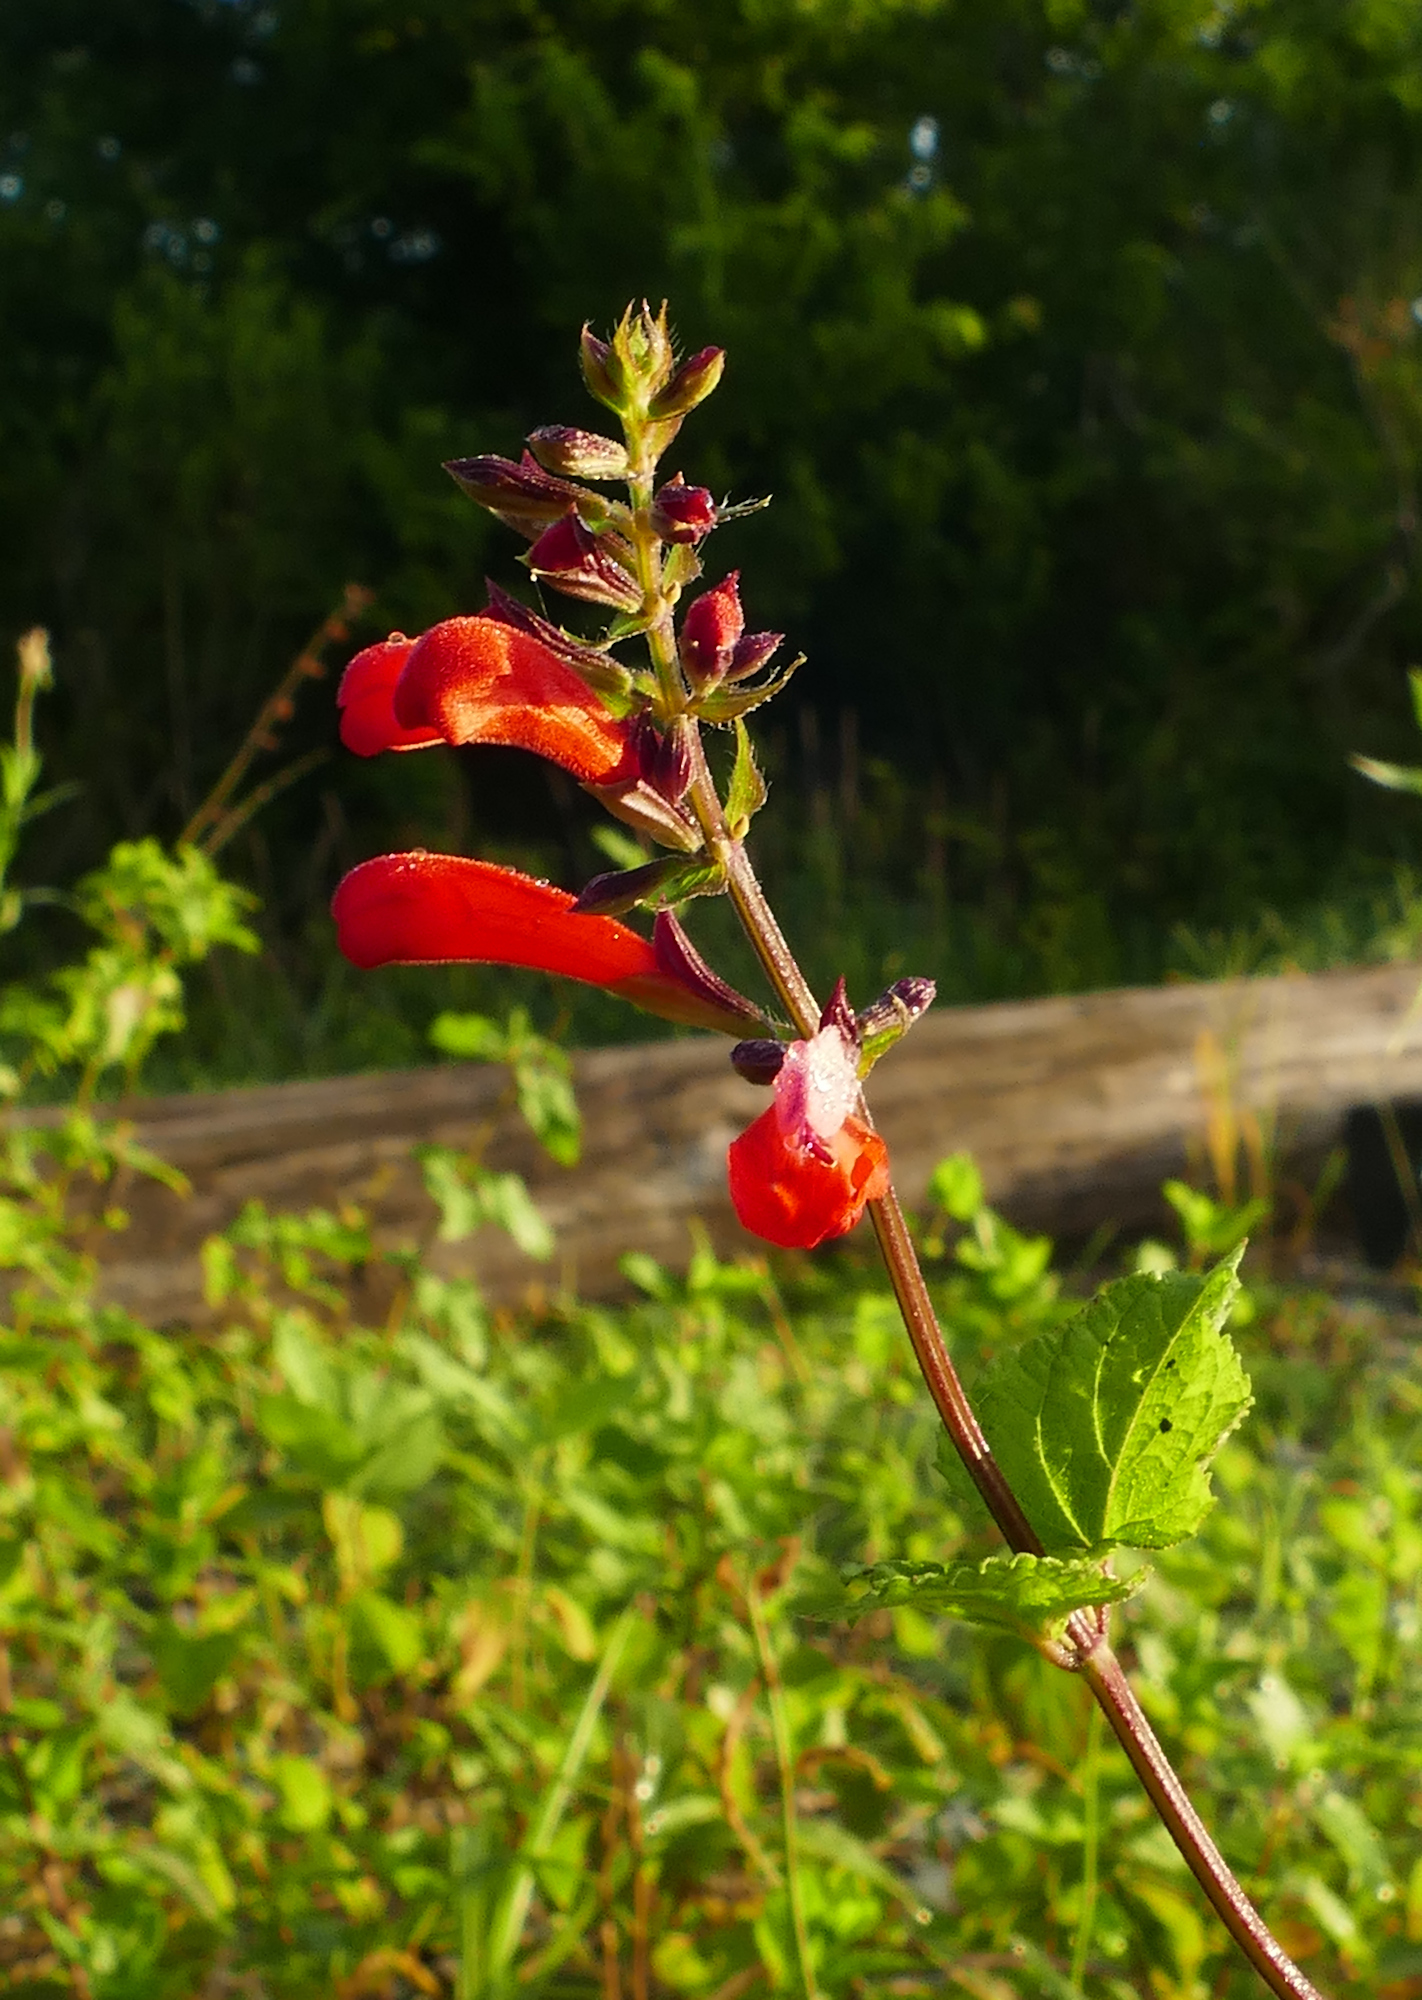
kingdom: Plantae
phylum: Tracheophyta
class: Magnoliopsida
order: Lamiales
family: Lamiaceae
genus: Salvia
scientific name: Salvia coccinea
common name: Blood sage
